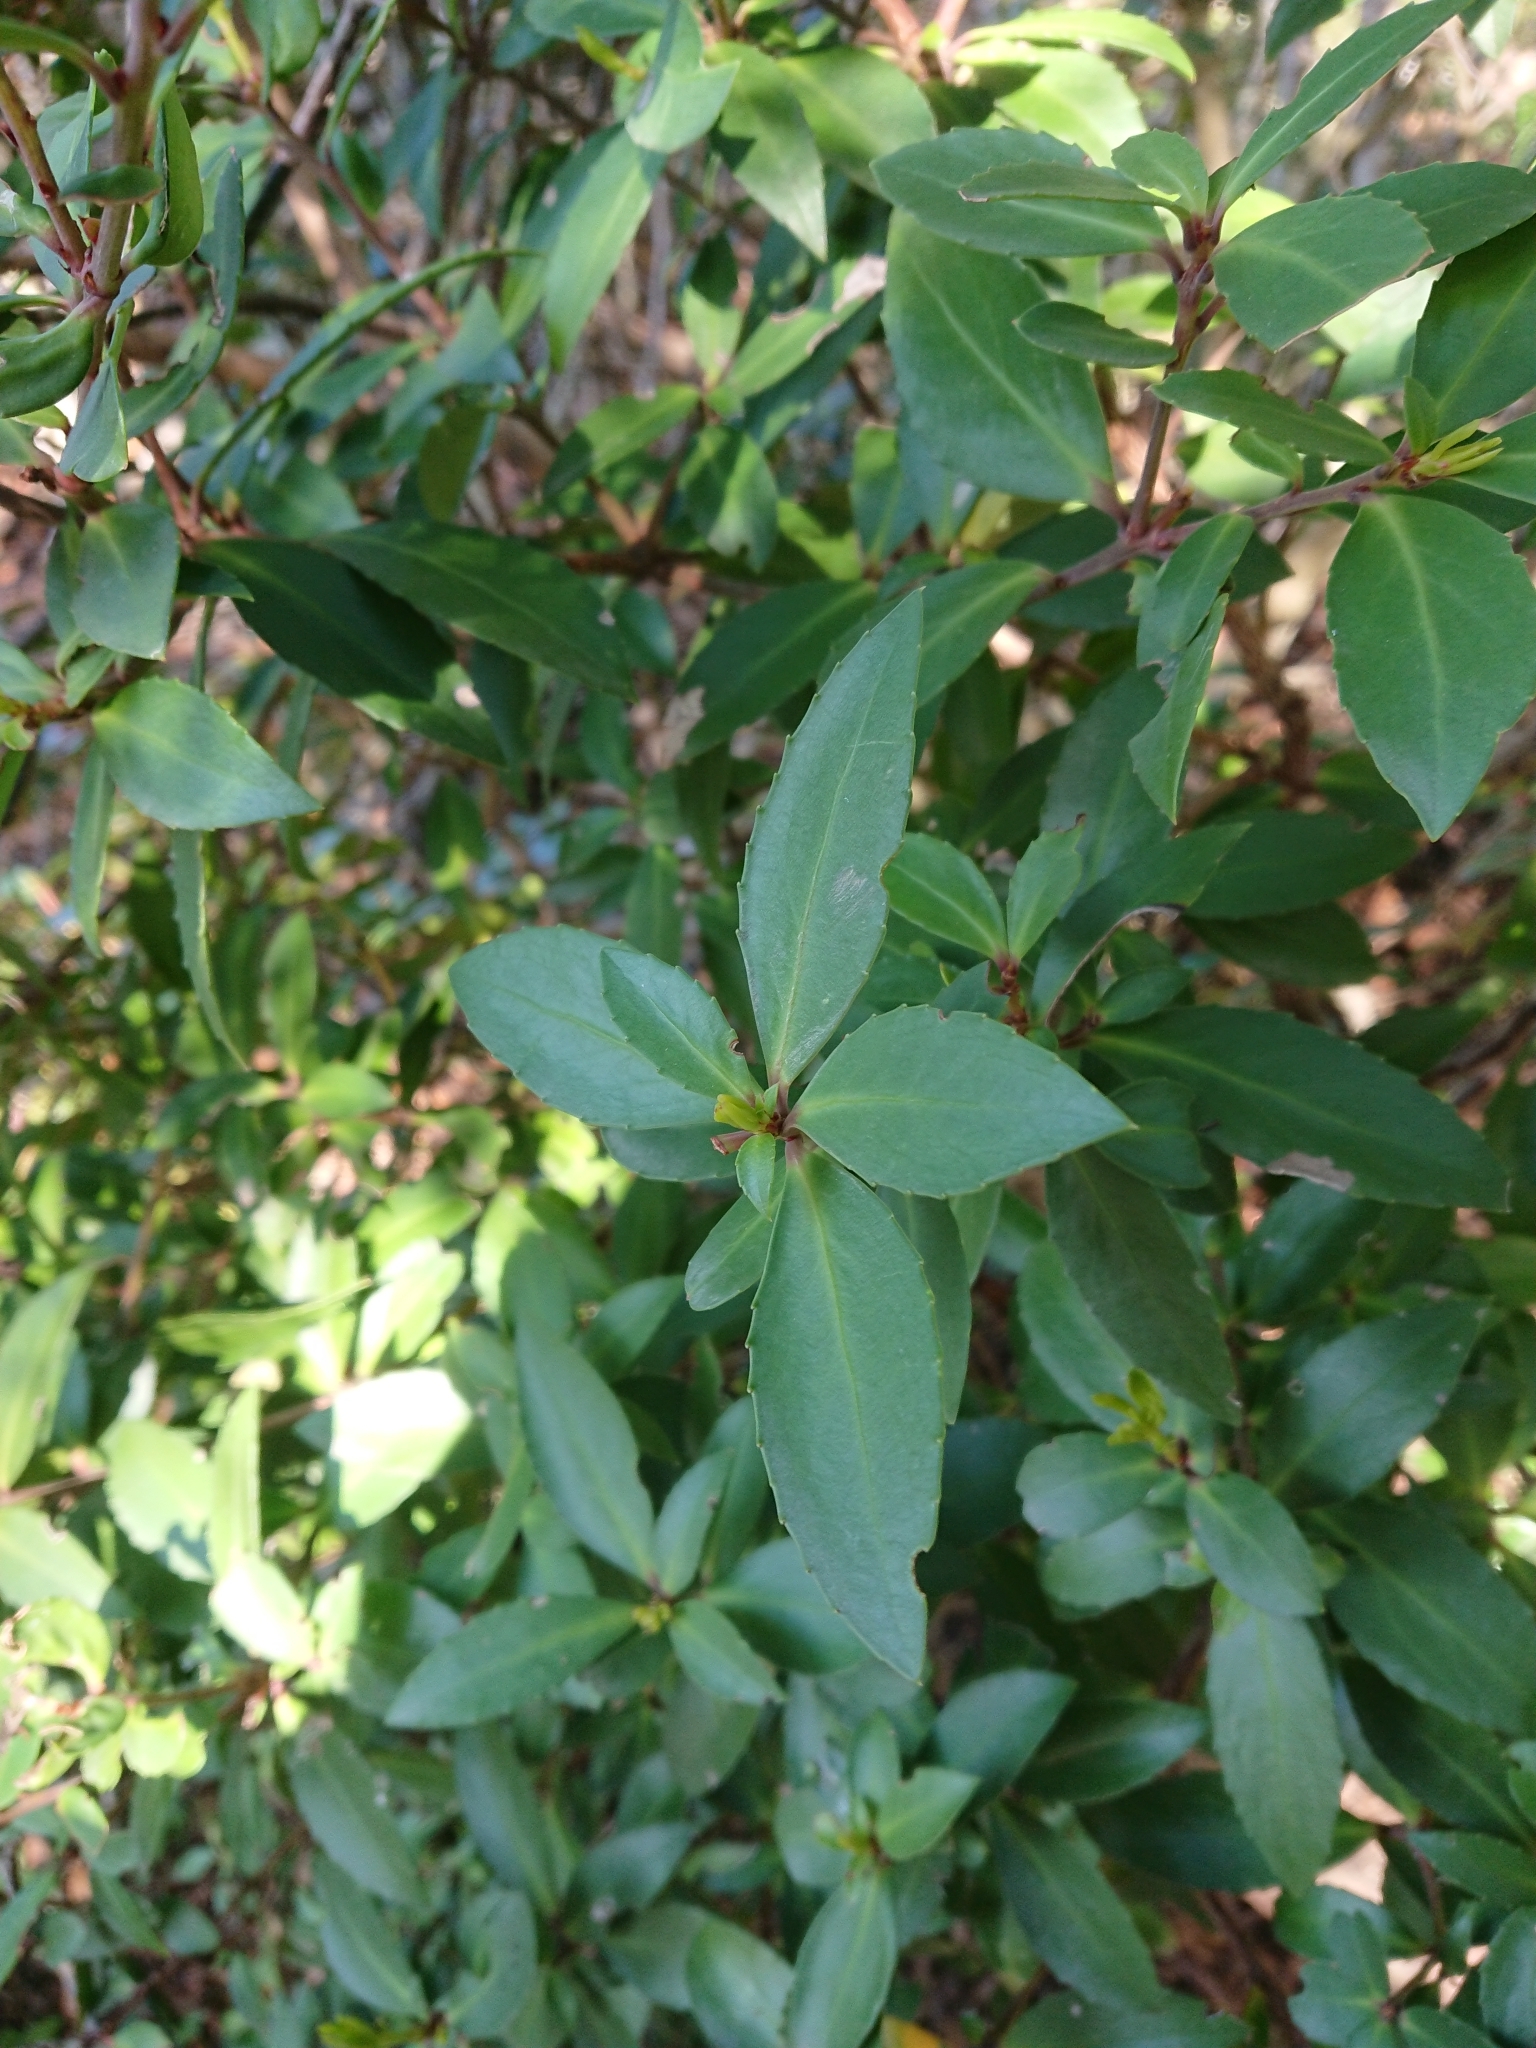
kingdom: Plantae
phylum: Tracheophyta
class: Magnoliopsida
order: Celastrales
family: Celastraceae
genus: Maytenus
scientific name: Maytenus magellanica
